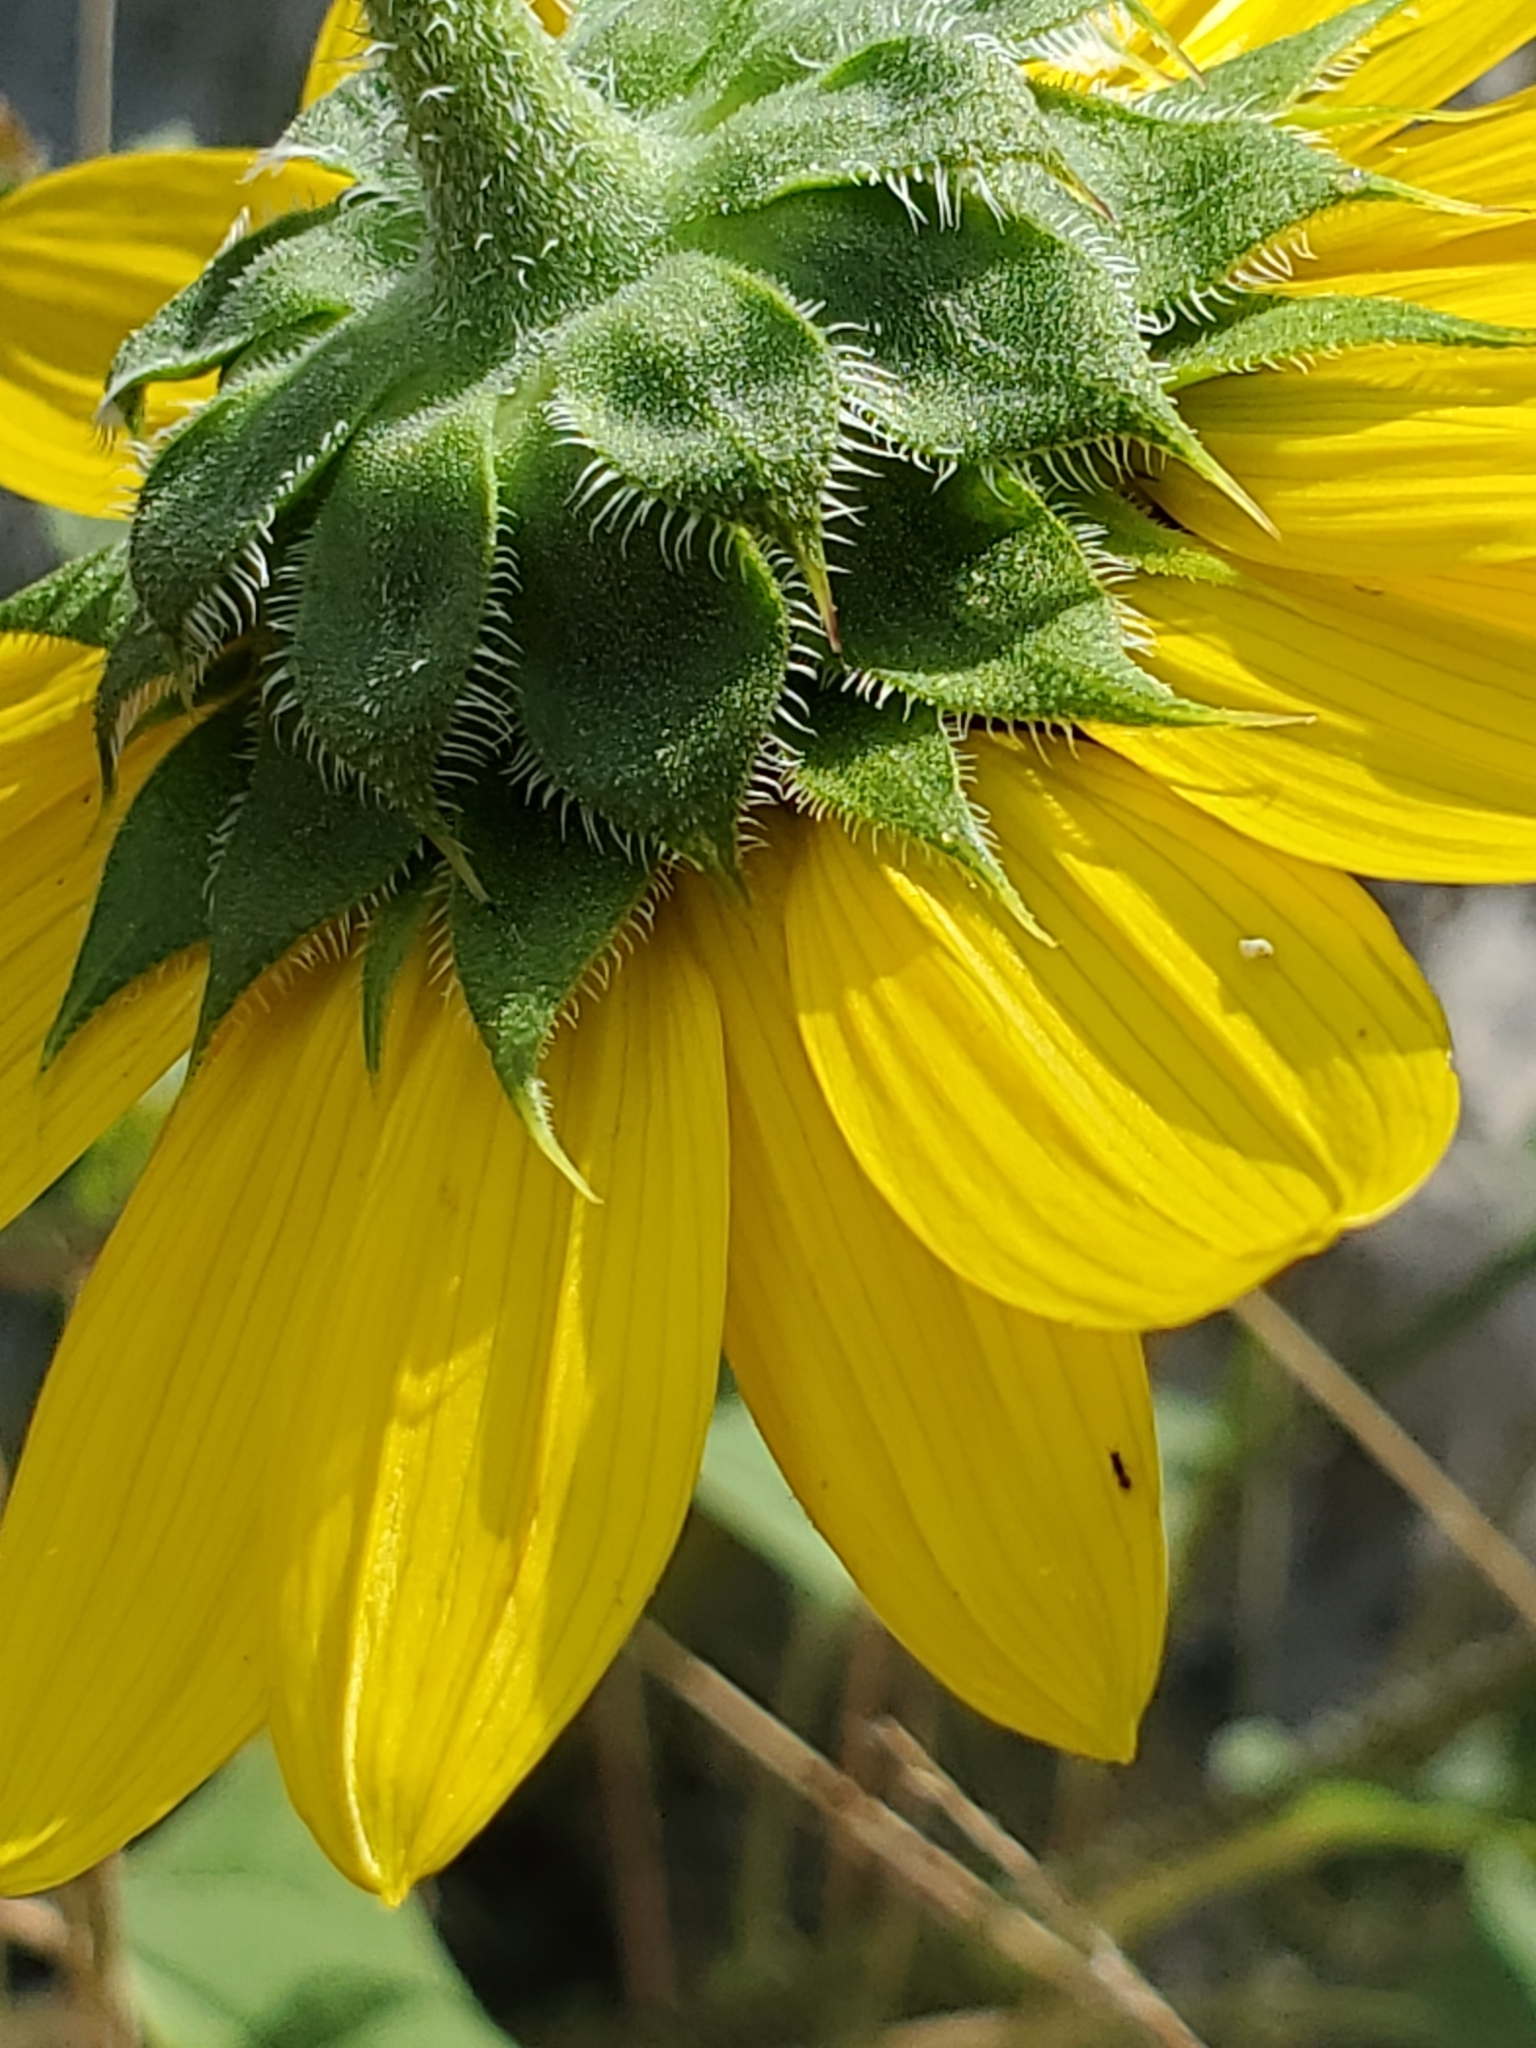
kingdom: Plantae
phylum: Tracheophyta
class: Magnoliopsida
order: Asterales
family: Asteraceae
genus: Helianthus
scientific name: Helianthus annuus
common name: Sunflower
